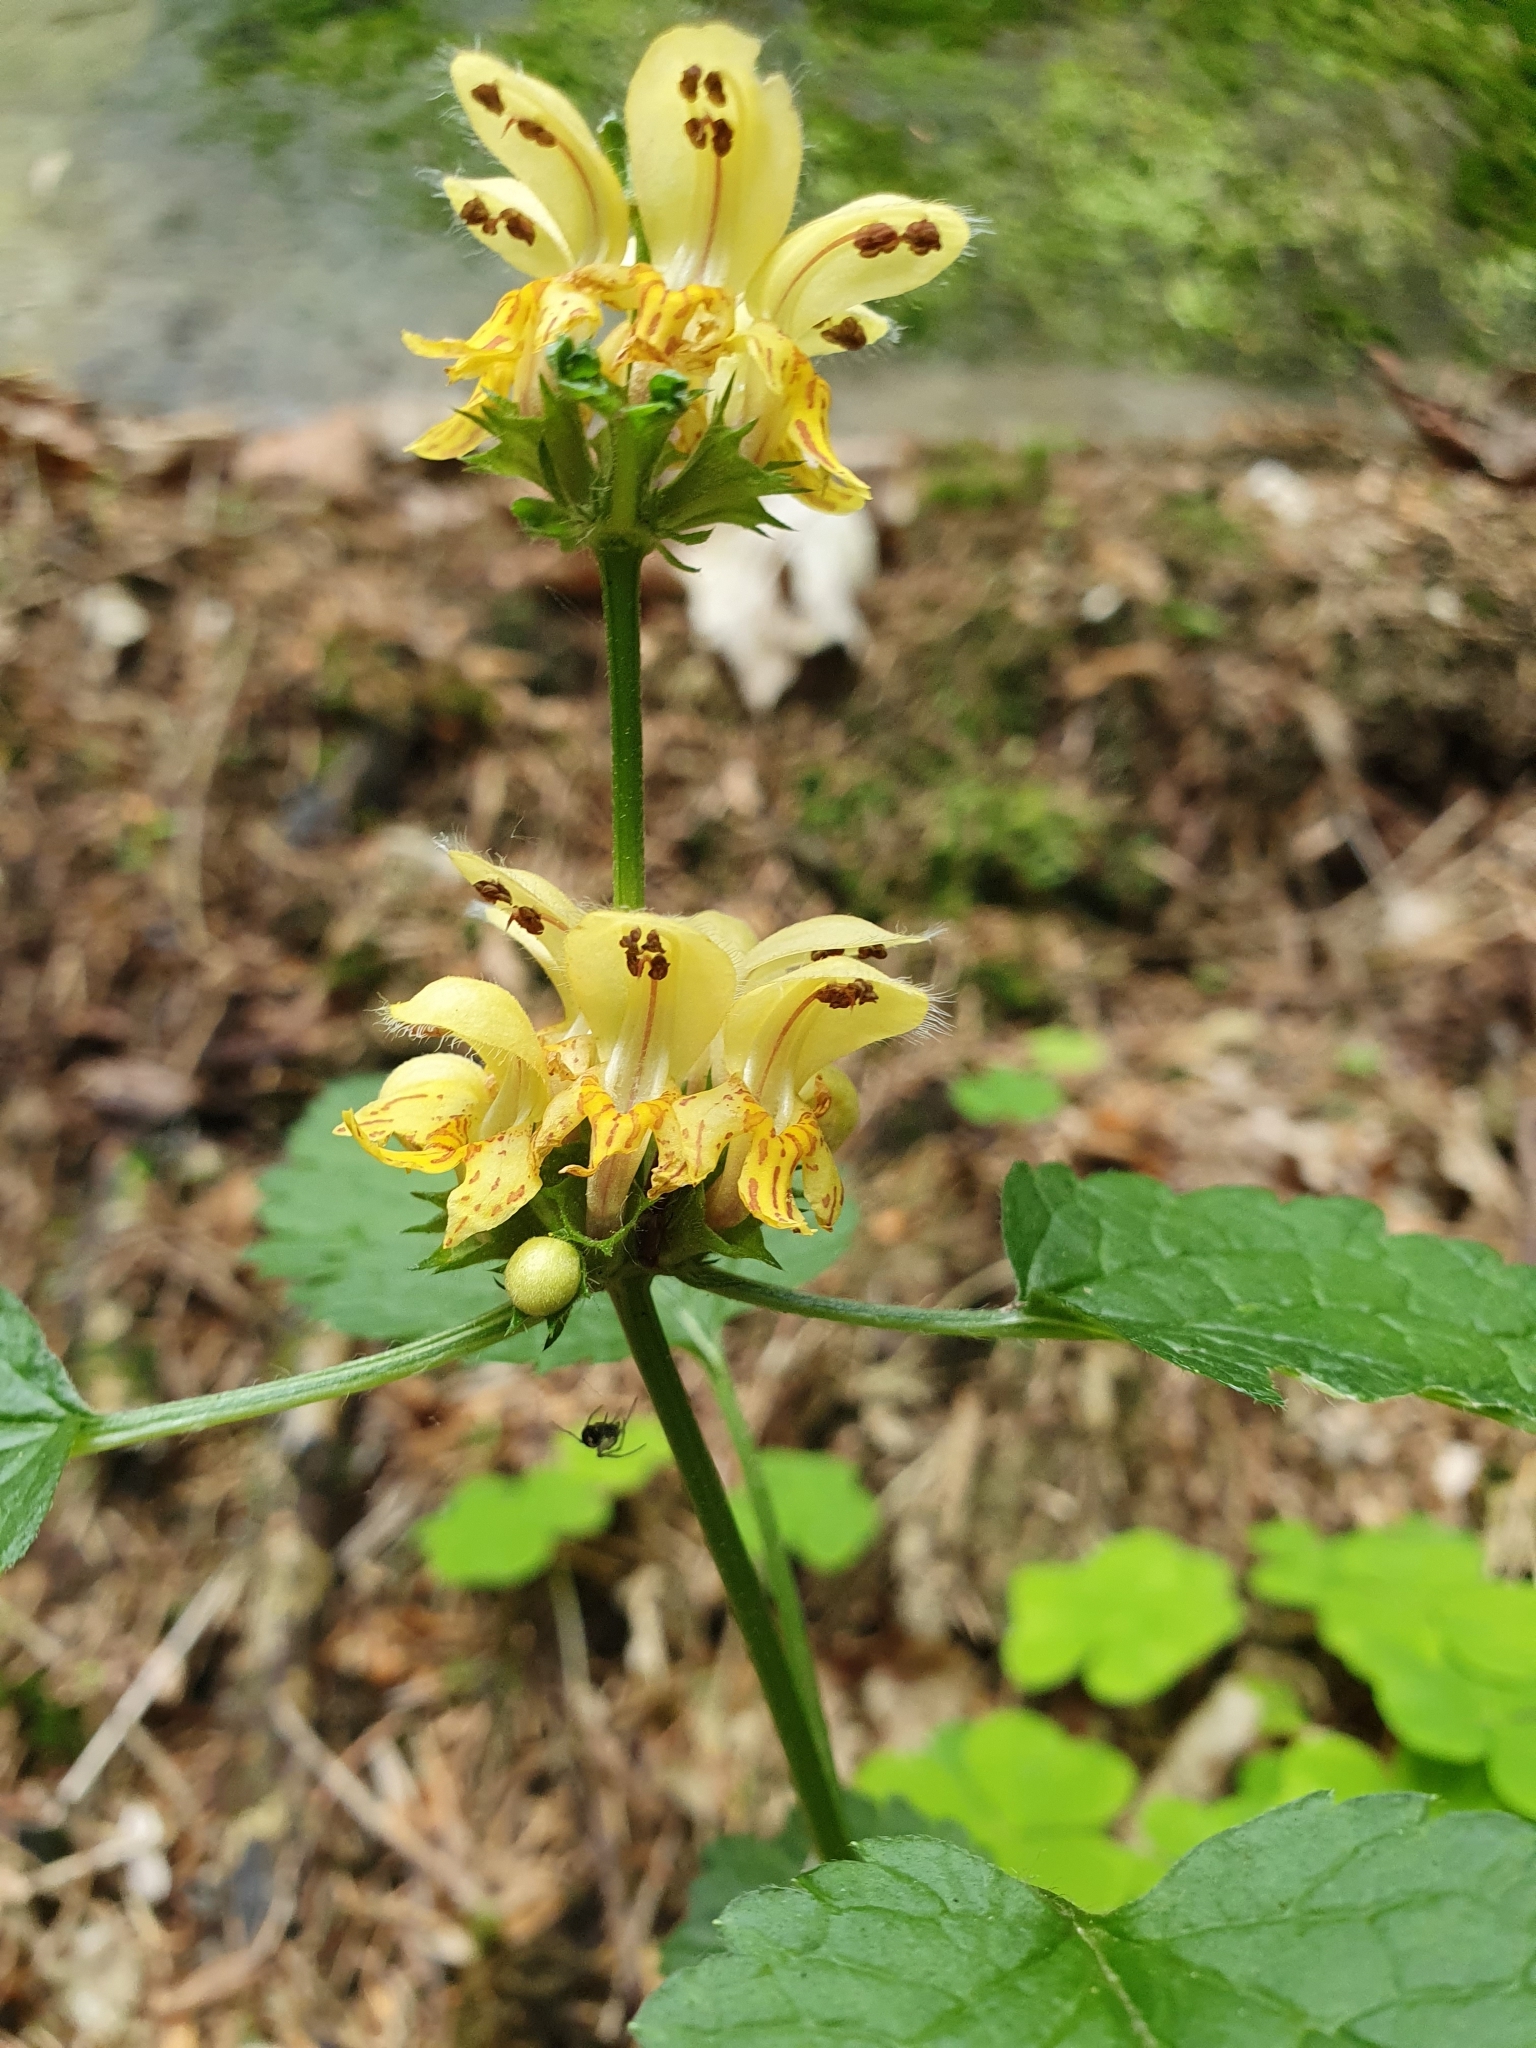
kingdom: Plantae
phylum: Tracheophyta
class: Magnoliopsida
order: Lamiales
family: Lamiaceae
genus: Lamium
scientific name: Lamium galeobdolon
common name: Yellow archangel
